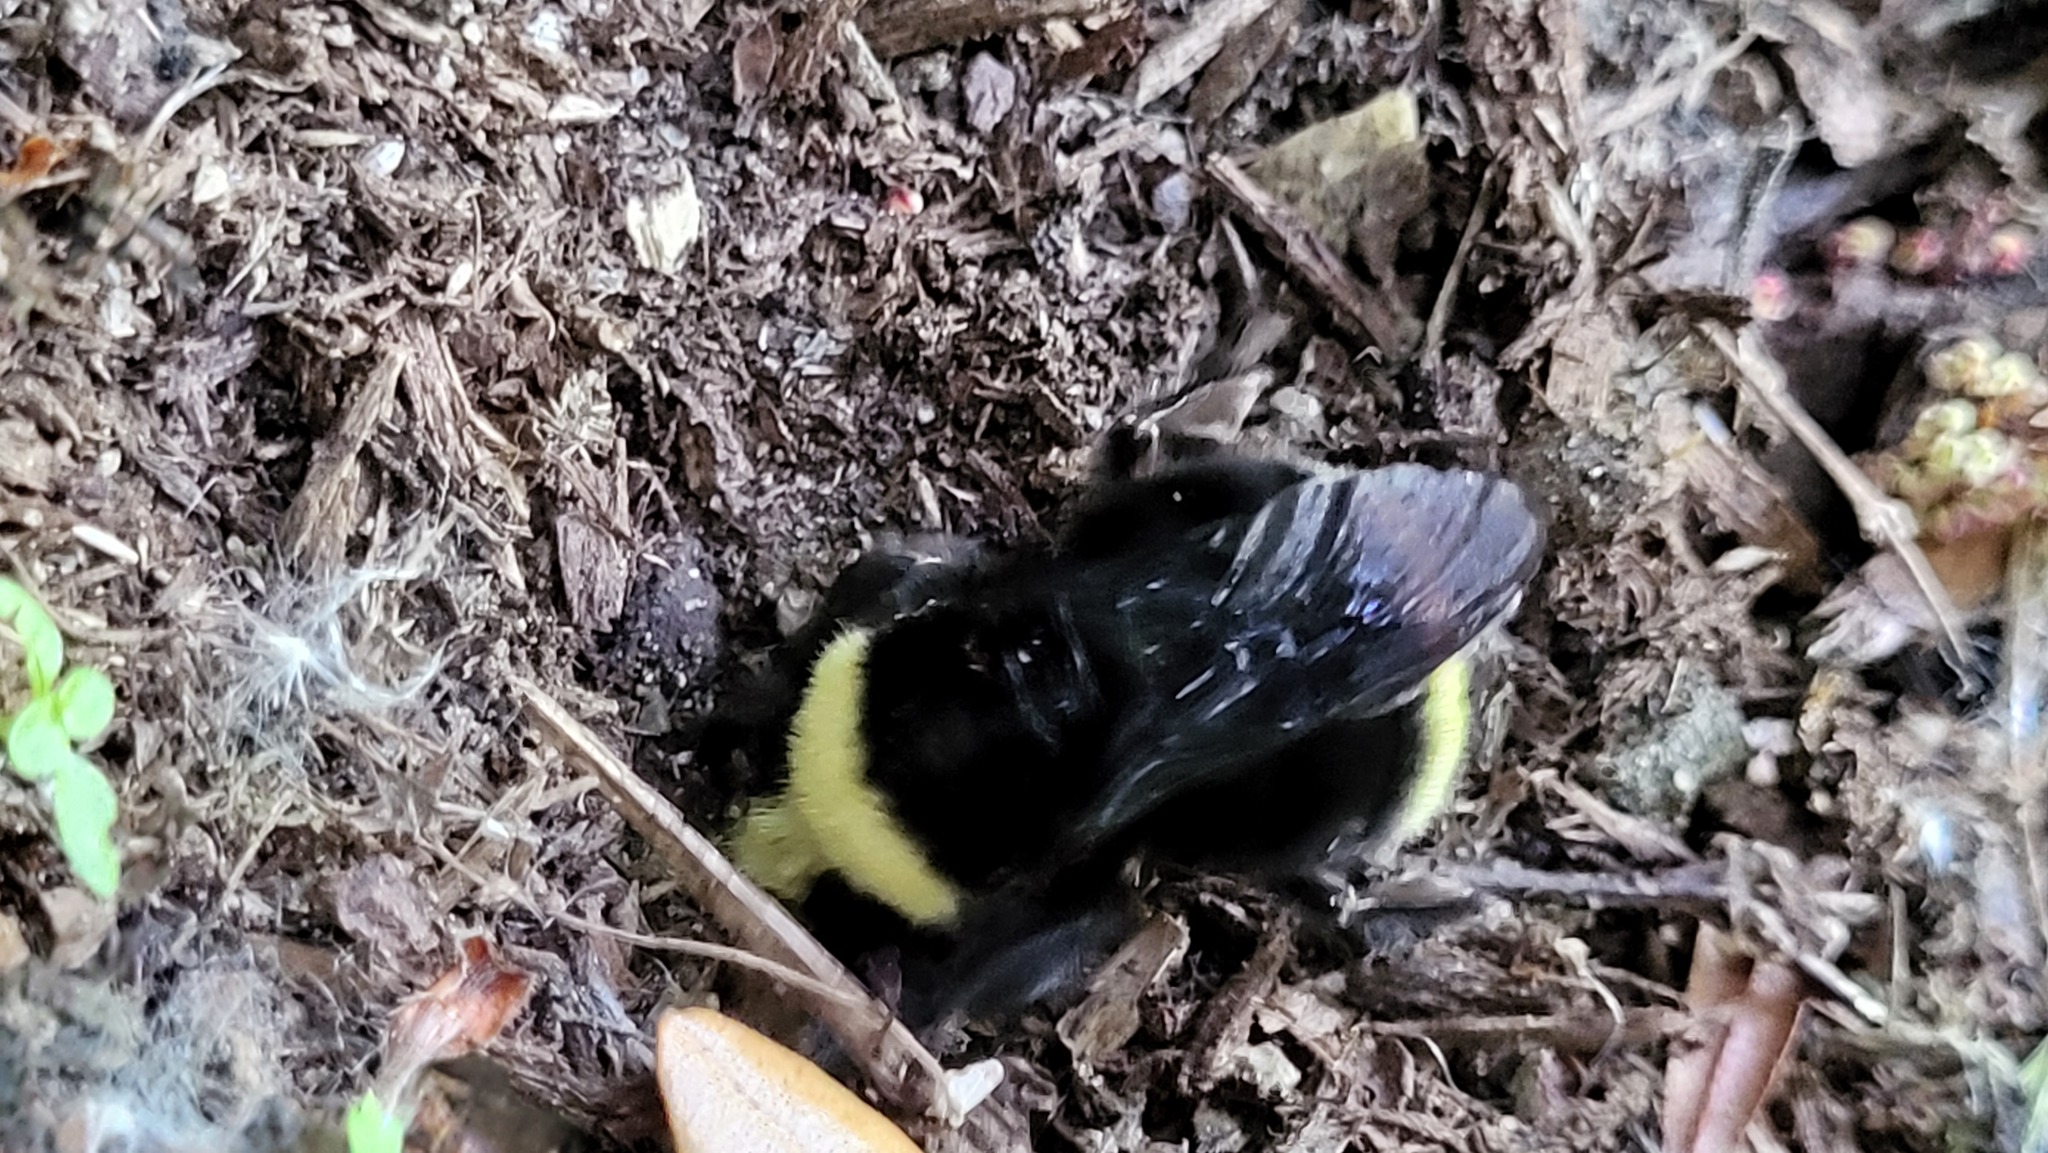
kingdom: Animalia
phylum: Arthropoda
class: Insecta
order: Hymenoptera
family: Apidae
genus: Bombus
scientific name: Bombus vosnesenskii
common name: Vosnesensky bumble bee
